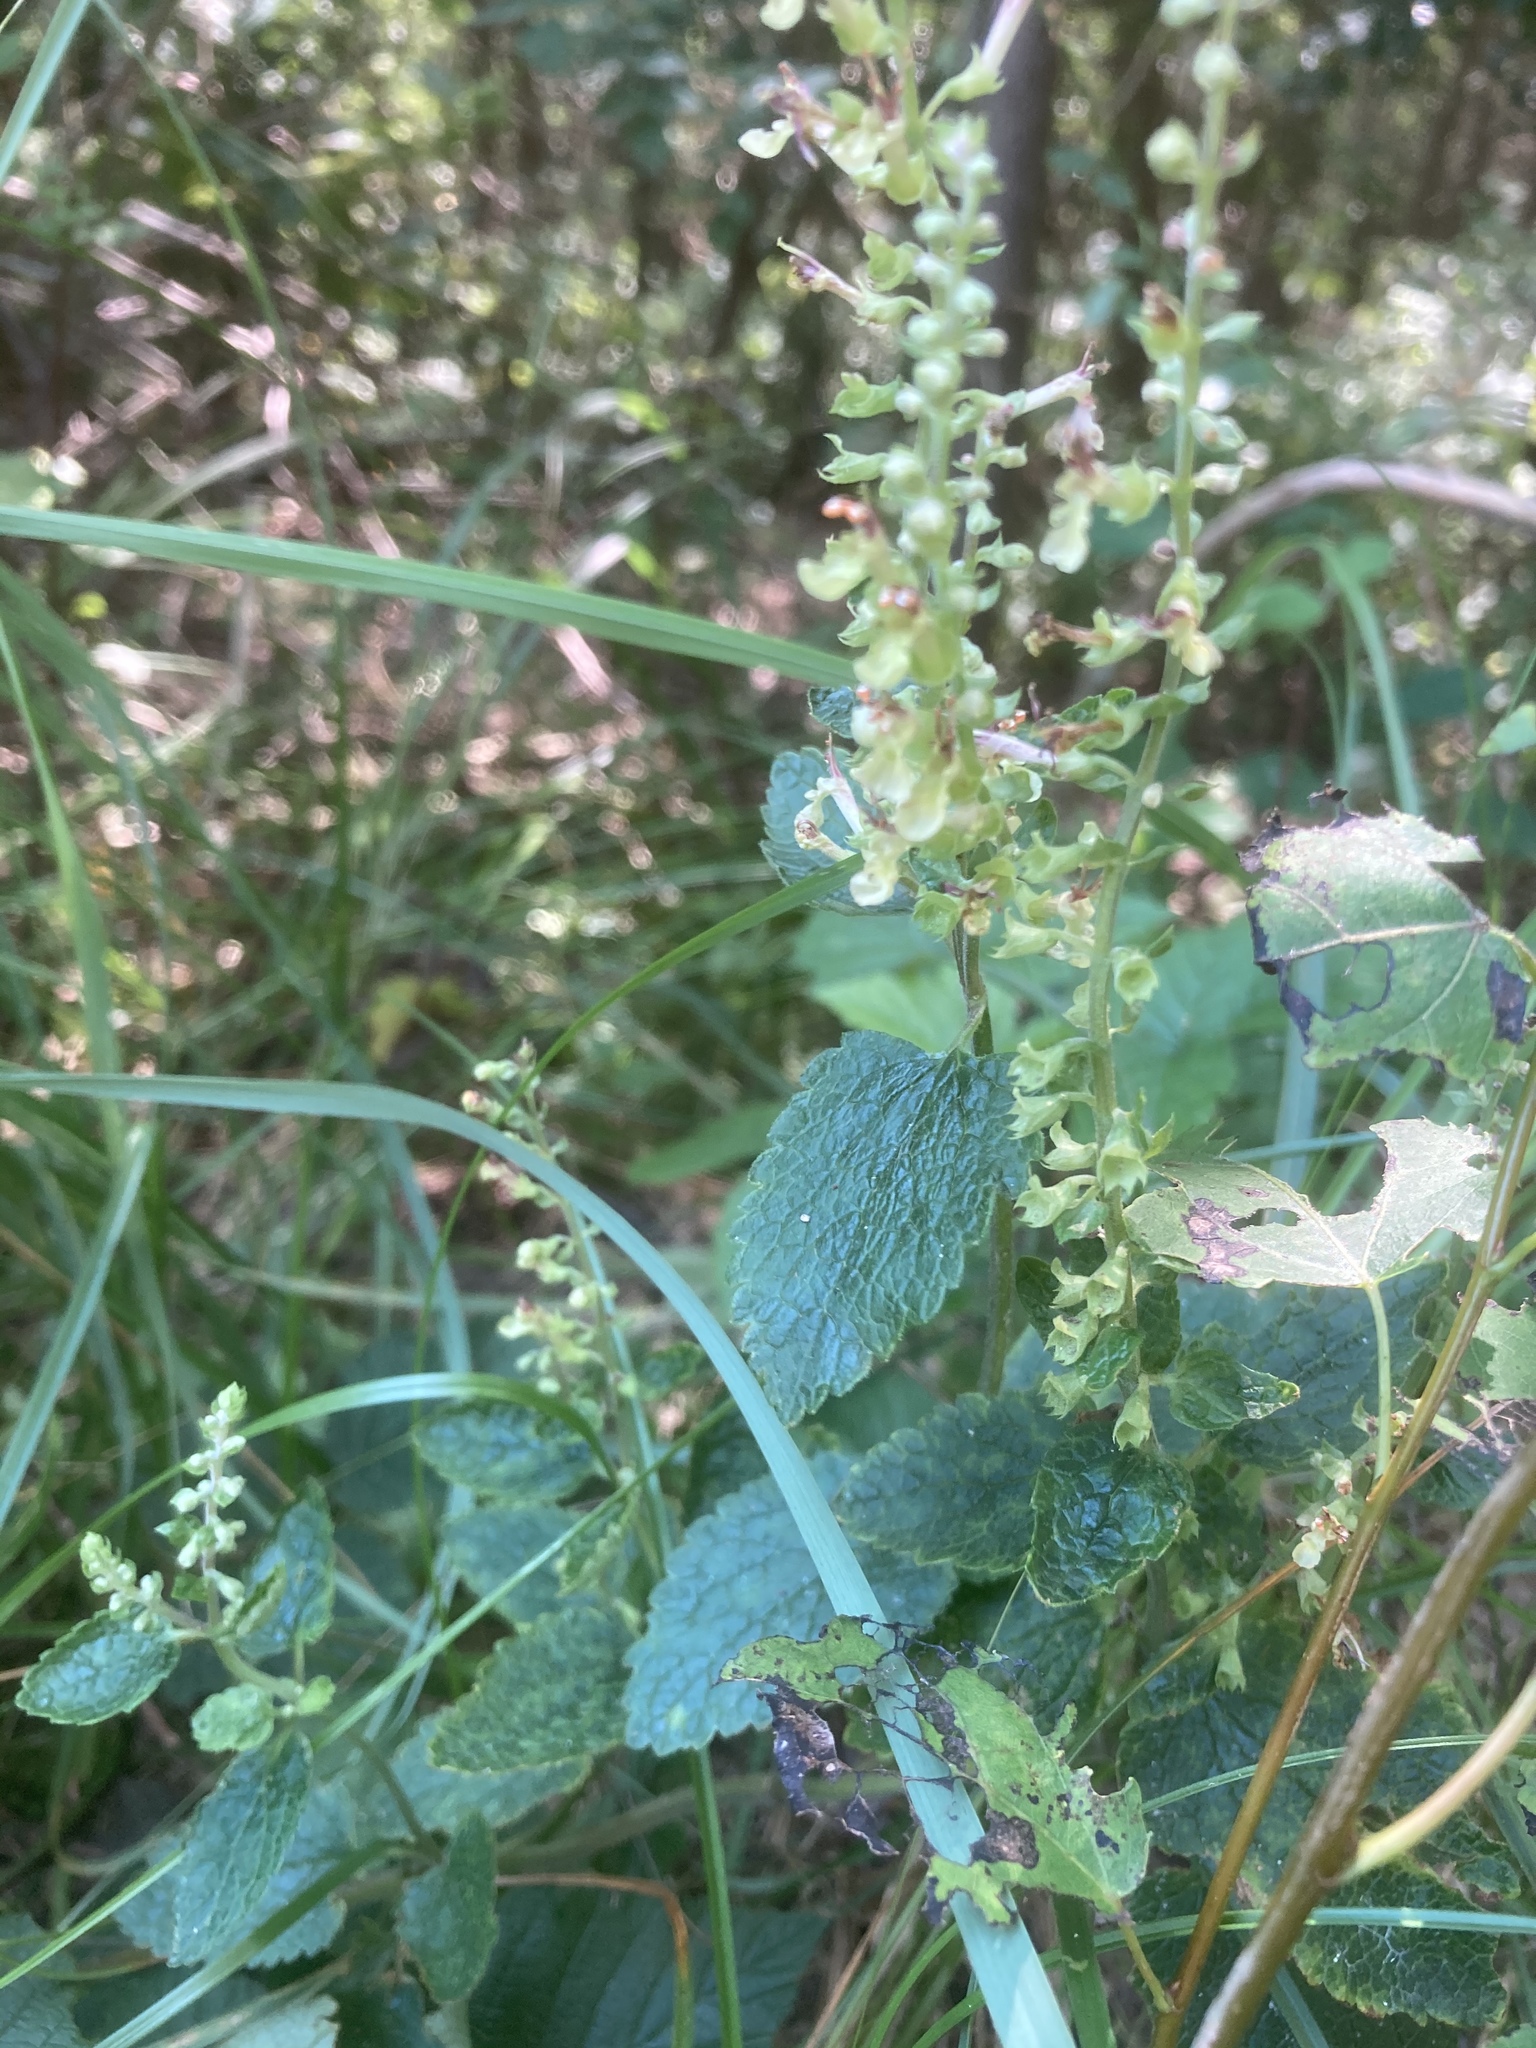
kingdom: Plantae
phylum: Tracheophyta
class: Magnoliopsida
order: Lamiales
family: Lamiaceae
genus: Teucrium
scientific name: Teucrium scorodonia
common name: Woodland germander
